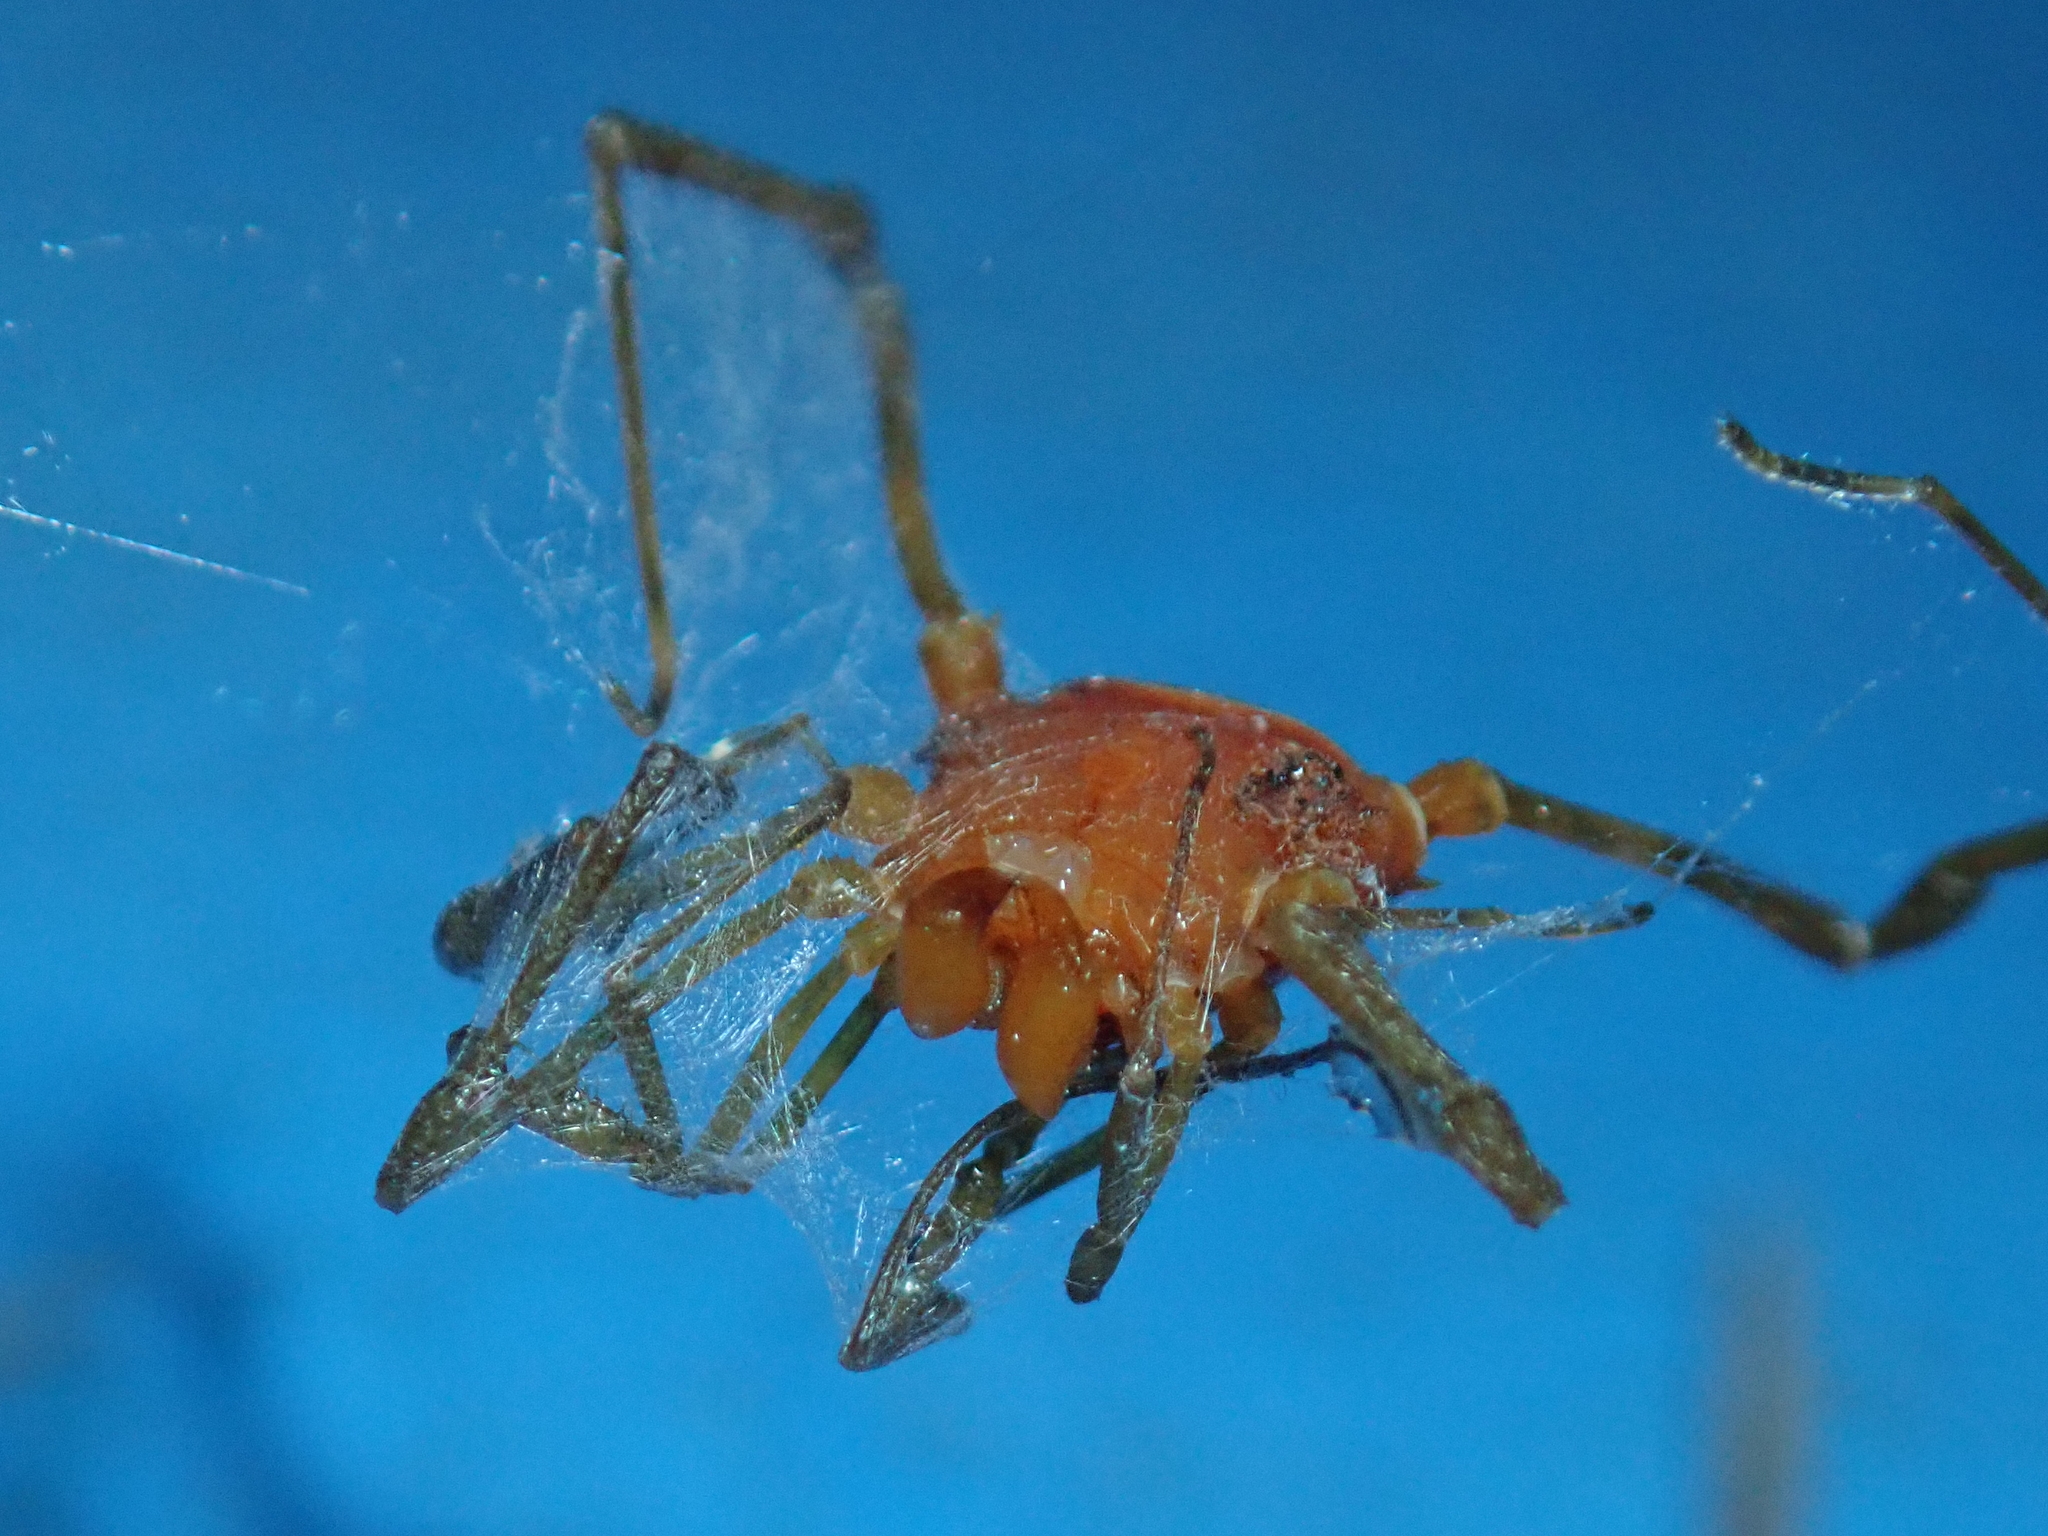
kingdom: Animalia
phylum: Arthropoda
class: Arachnida
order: Opiliones
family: Stygnidae
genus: Stygnus
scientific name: Stygnus polyacanthus
